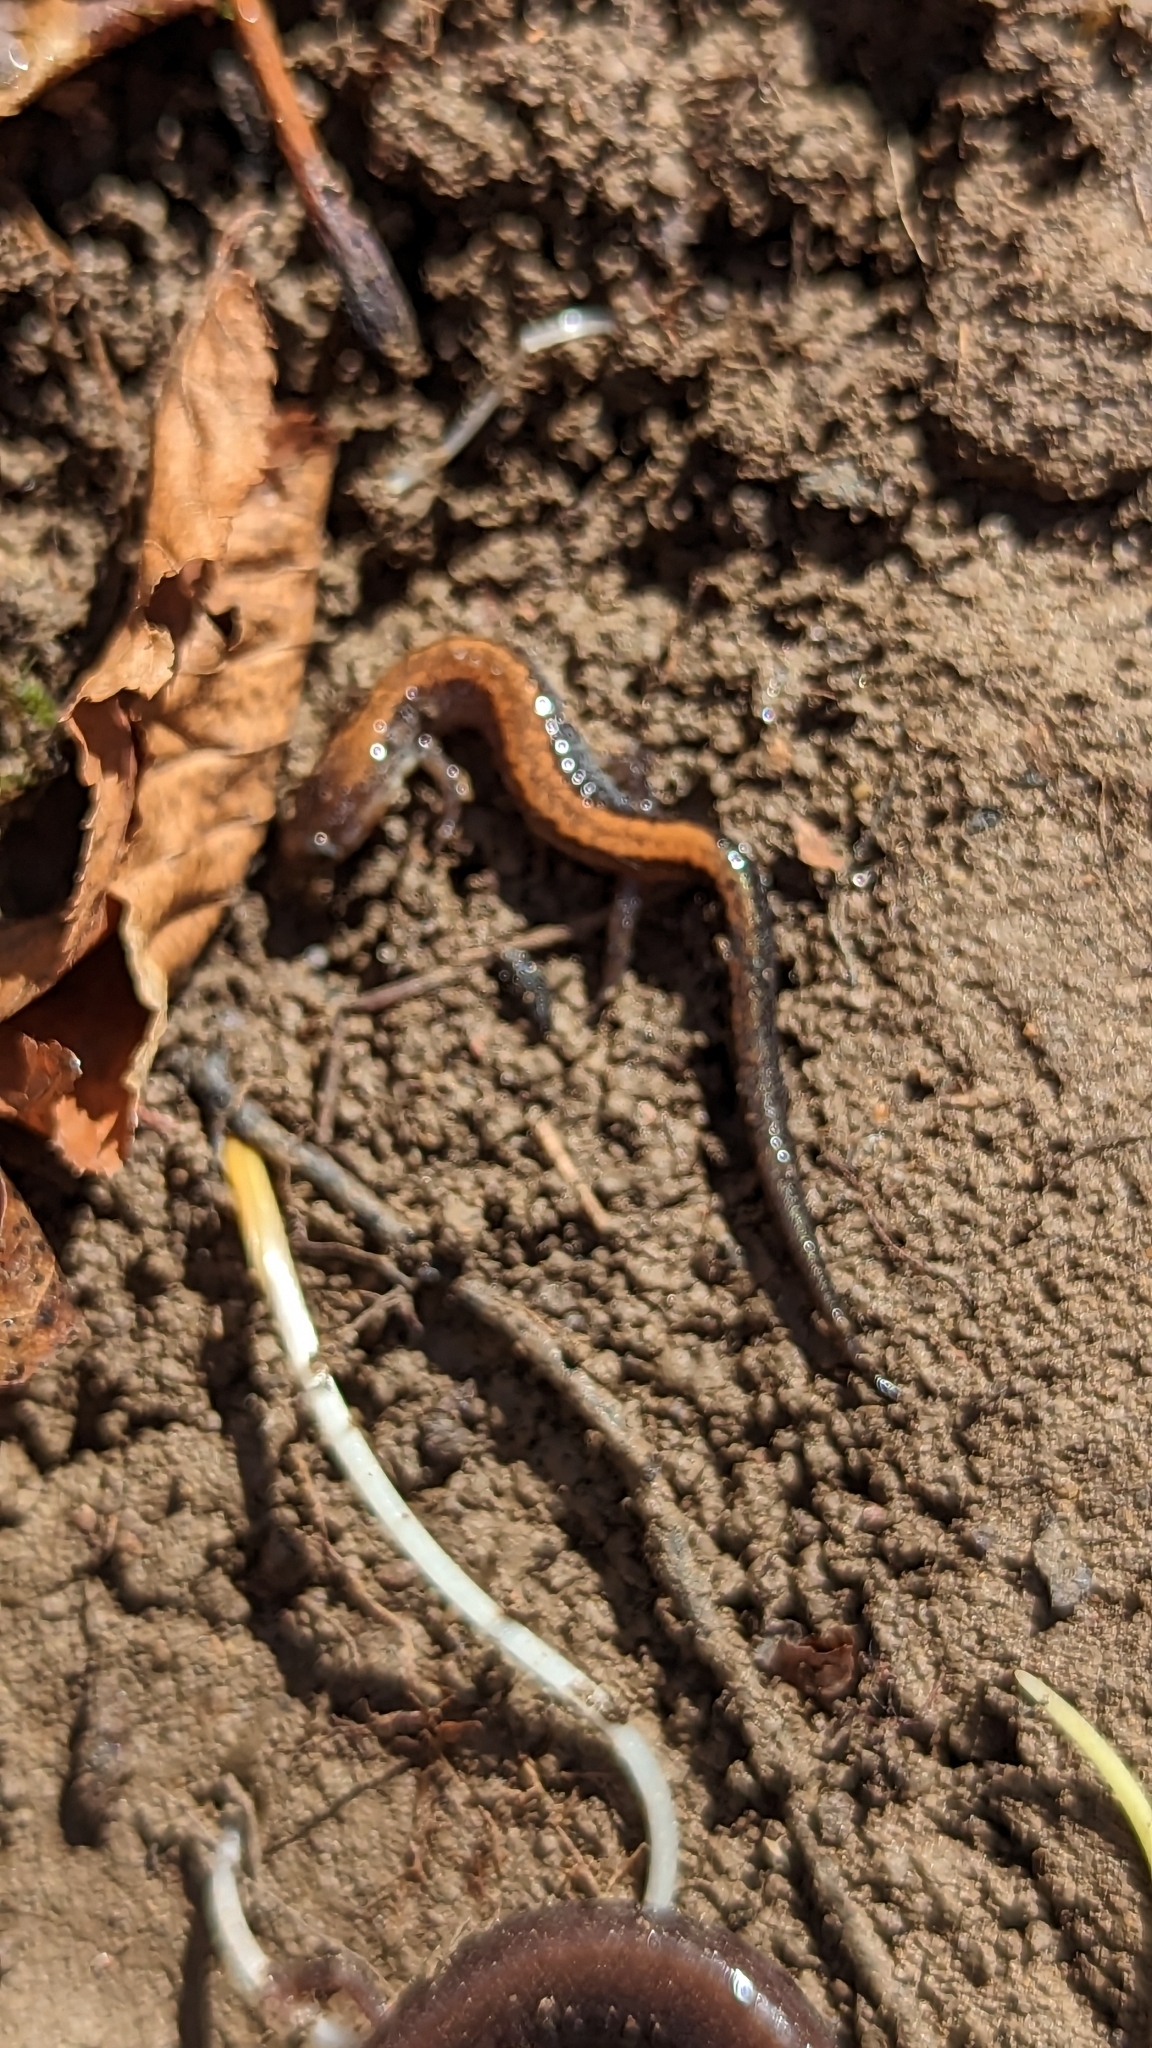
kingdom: Animalia
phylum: Chordata
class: Amphibia
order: Caudata
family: Plethodontidae
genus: Plethodon
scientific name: Plethodon cinereus
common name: Redback salamander
